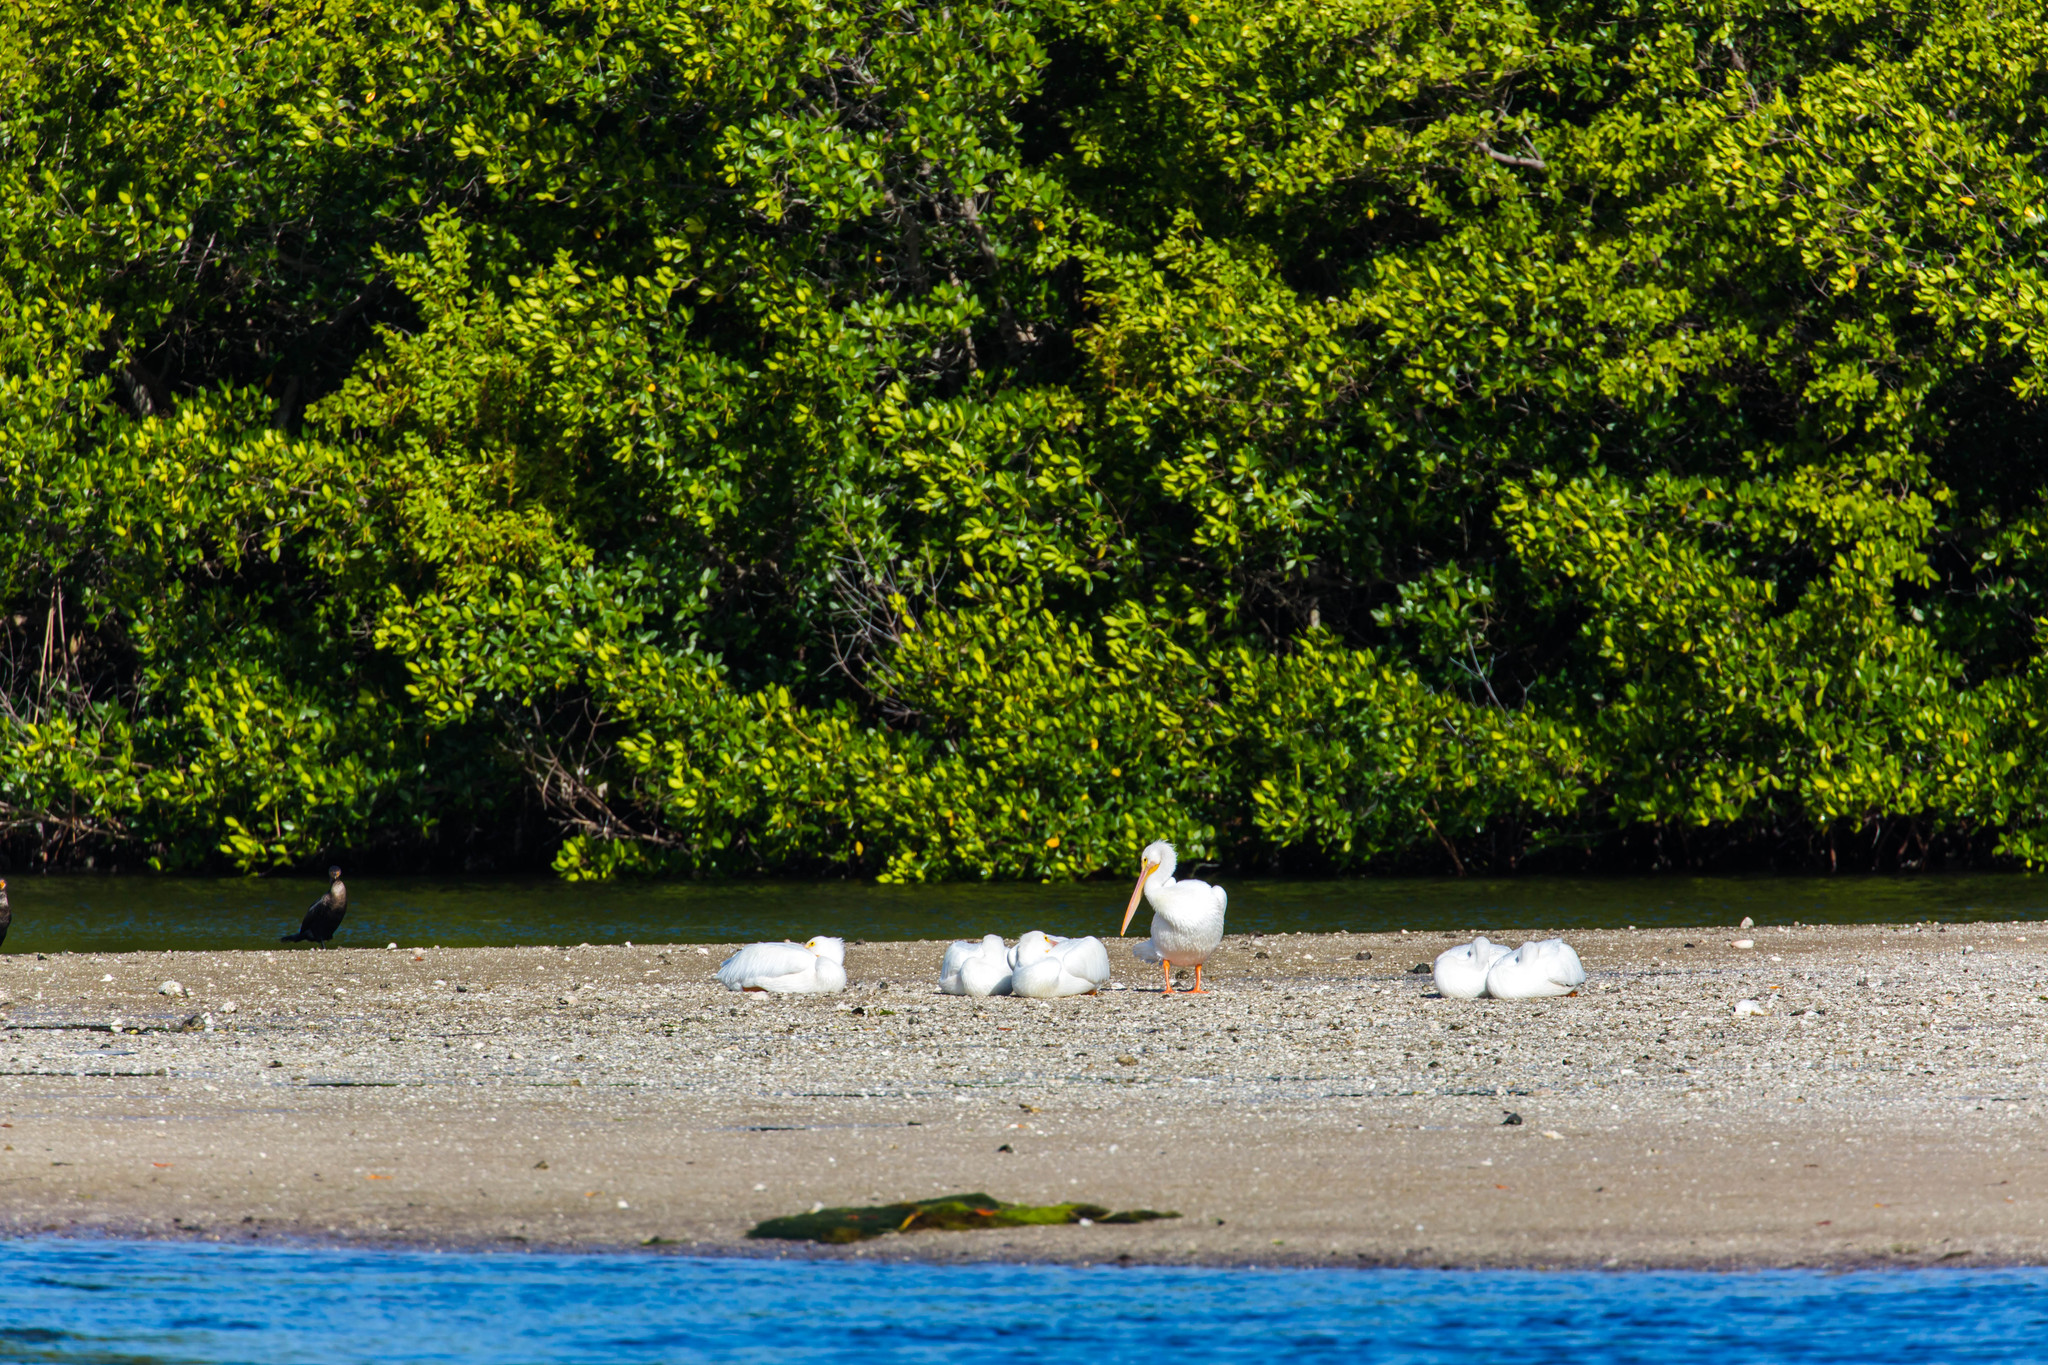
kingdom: Animalia
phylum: Chordata
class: Aves
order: Pelecaniformes
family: Pelecanidae
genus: Pelecanus
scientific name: Pelecanus erythrorhynchos
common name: American white pelican
